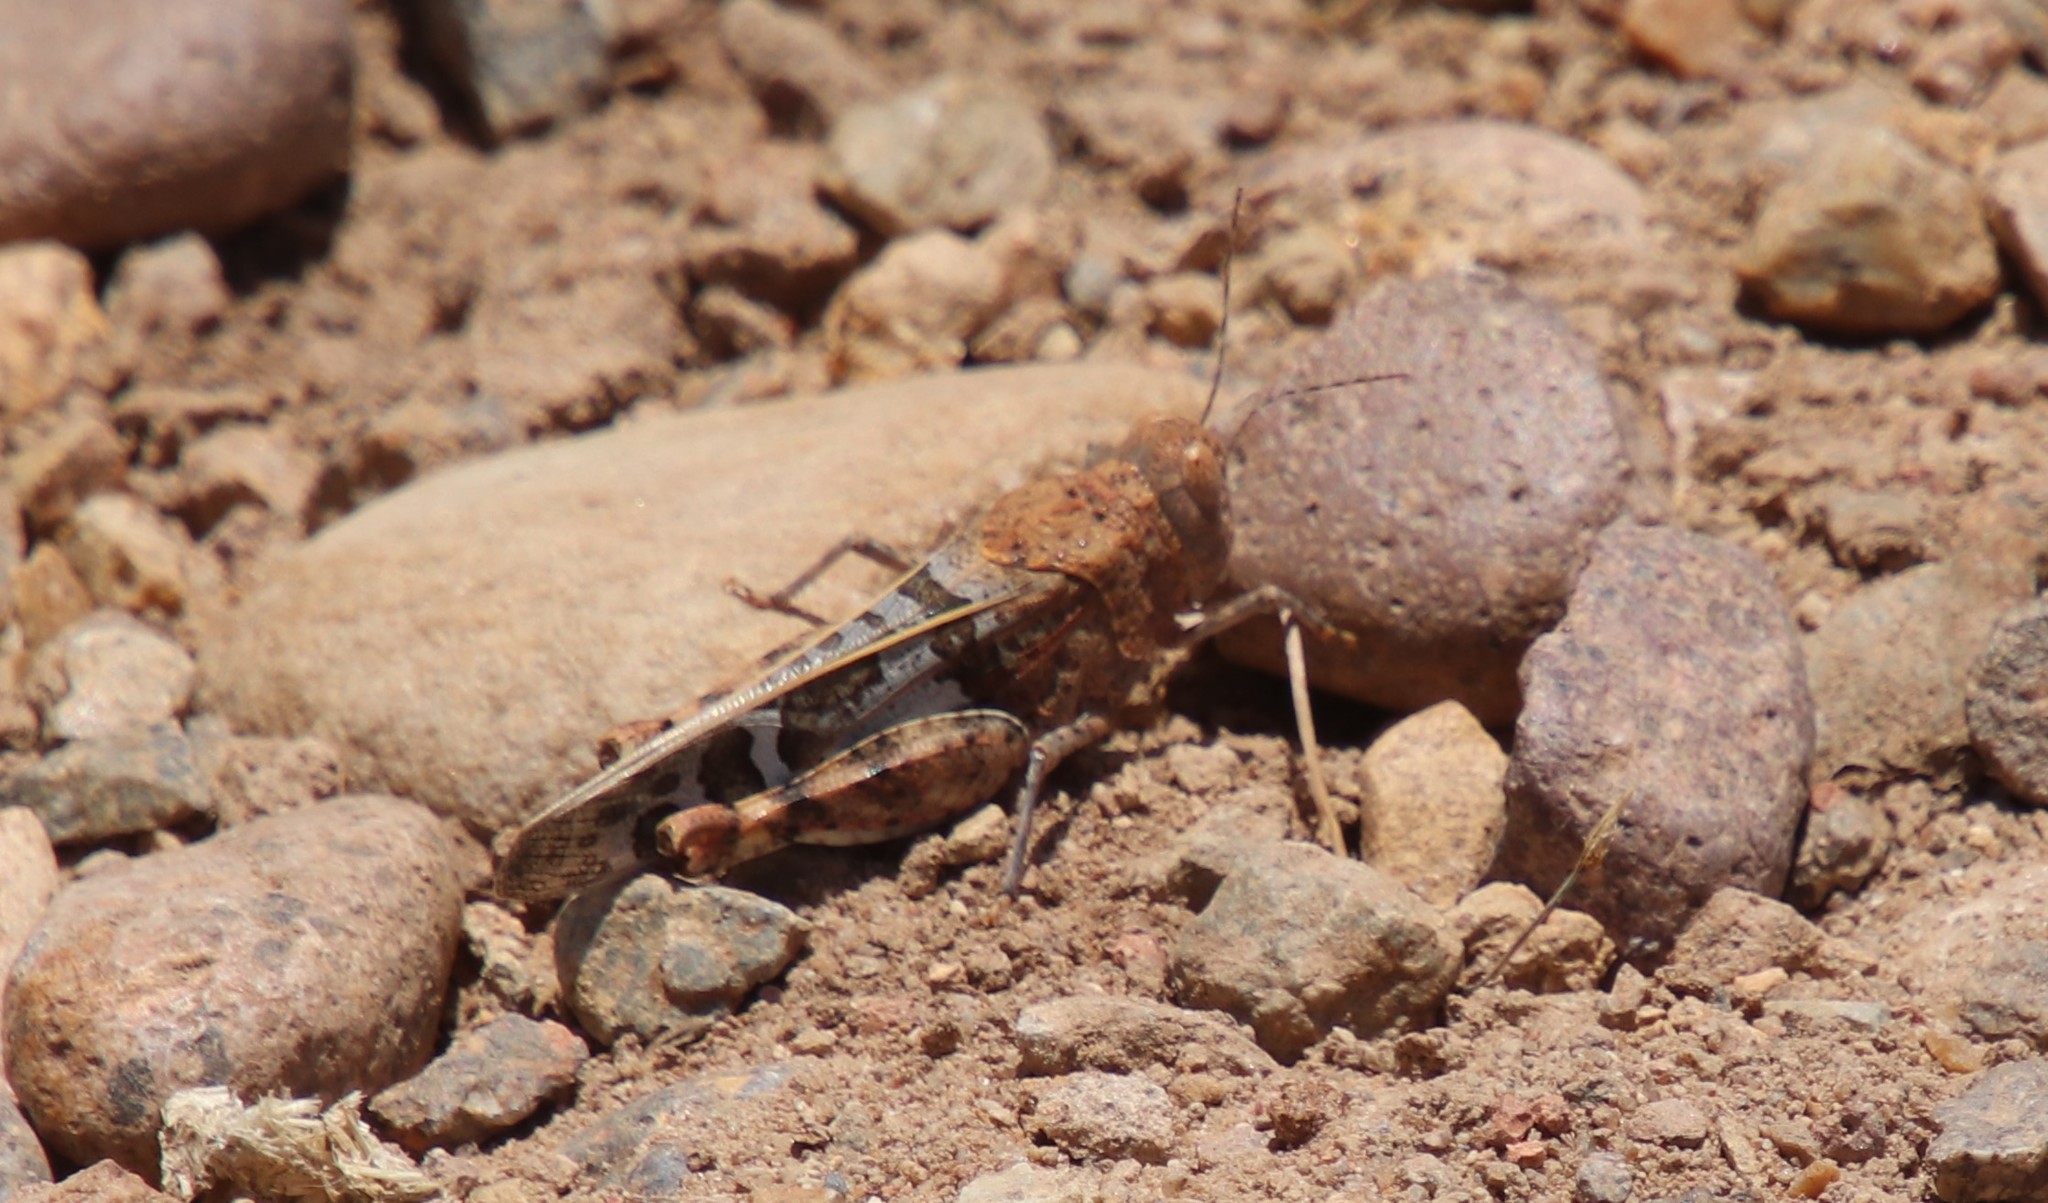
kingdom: Animalia
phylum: Arthropoda
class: Insecta
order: Orthoptera
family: Acrididae
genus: Leprus
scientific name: Leprus intermedius
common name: Saussure's blue-winged grasshopper
